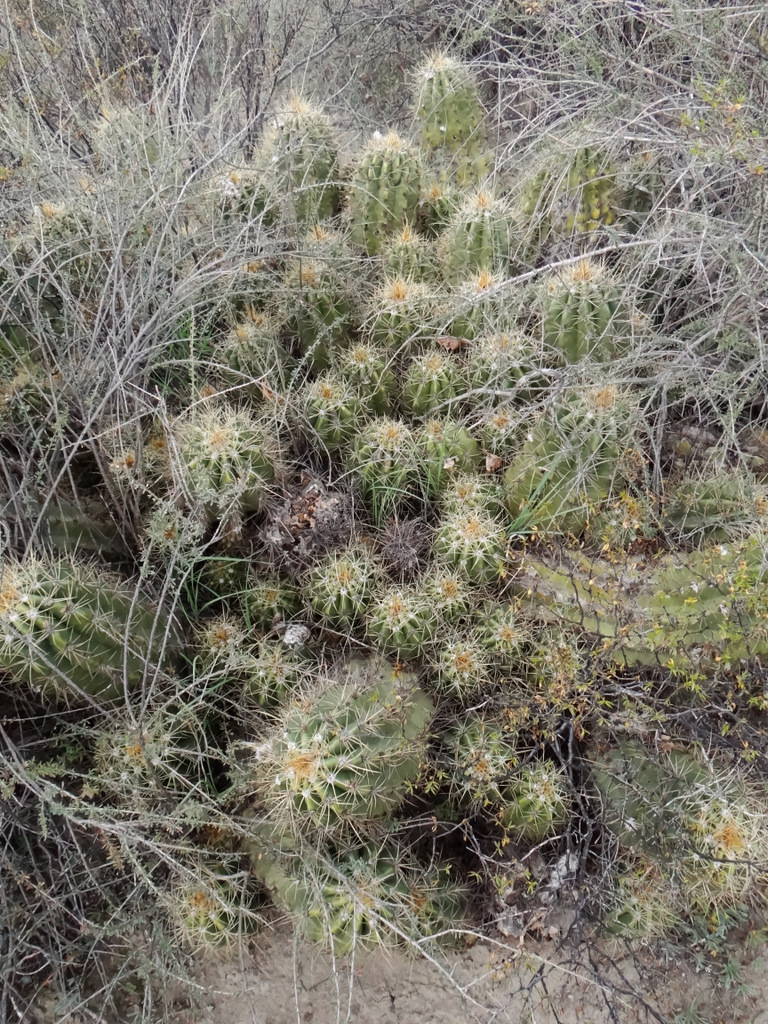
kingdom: Plantae
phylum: Tracheophyta
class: Magnoliopsida
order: Caryophyllales
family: Cactaceae
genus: Soehrensia
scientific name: Soehrensia candicans
